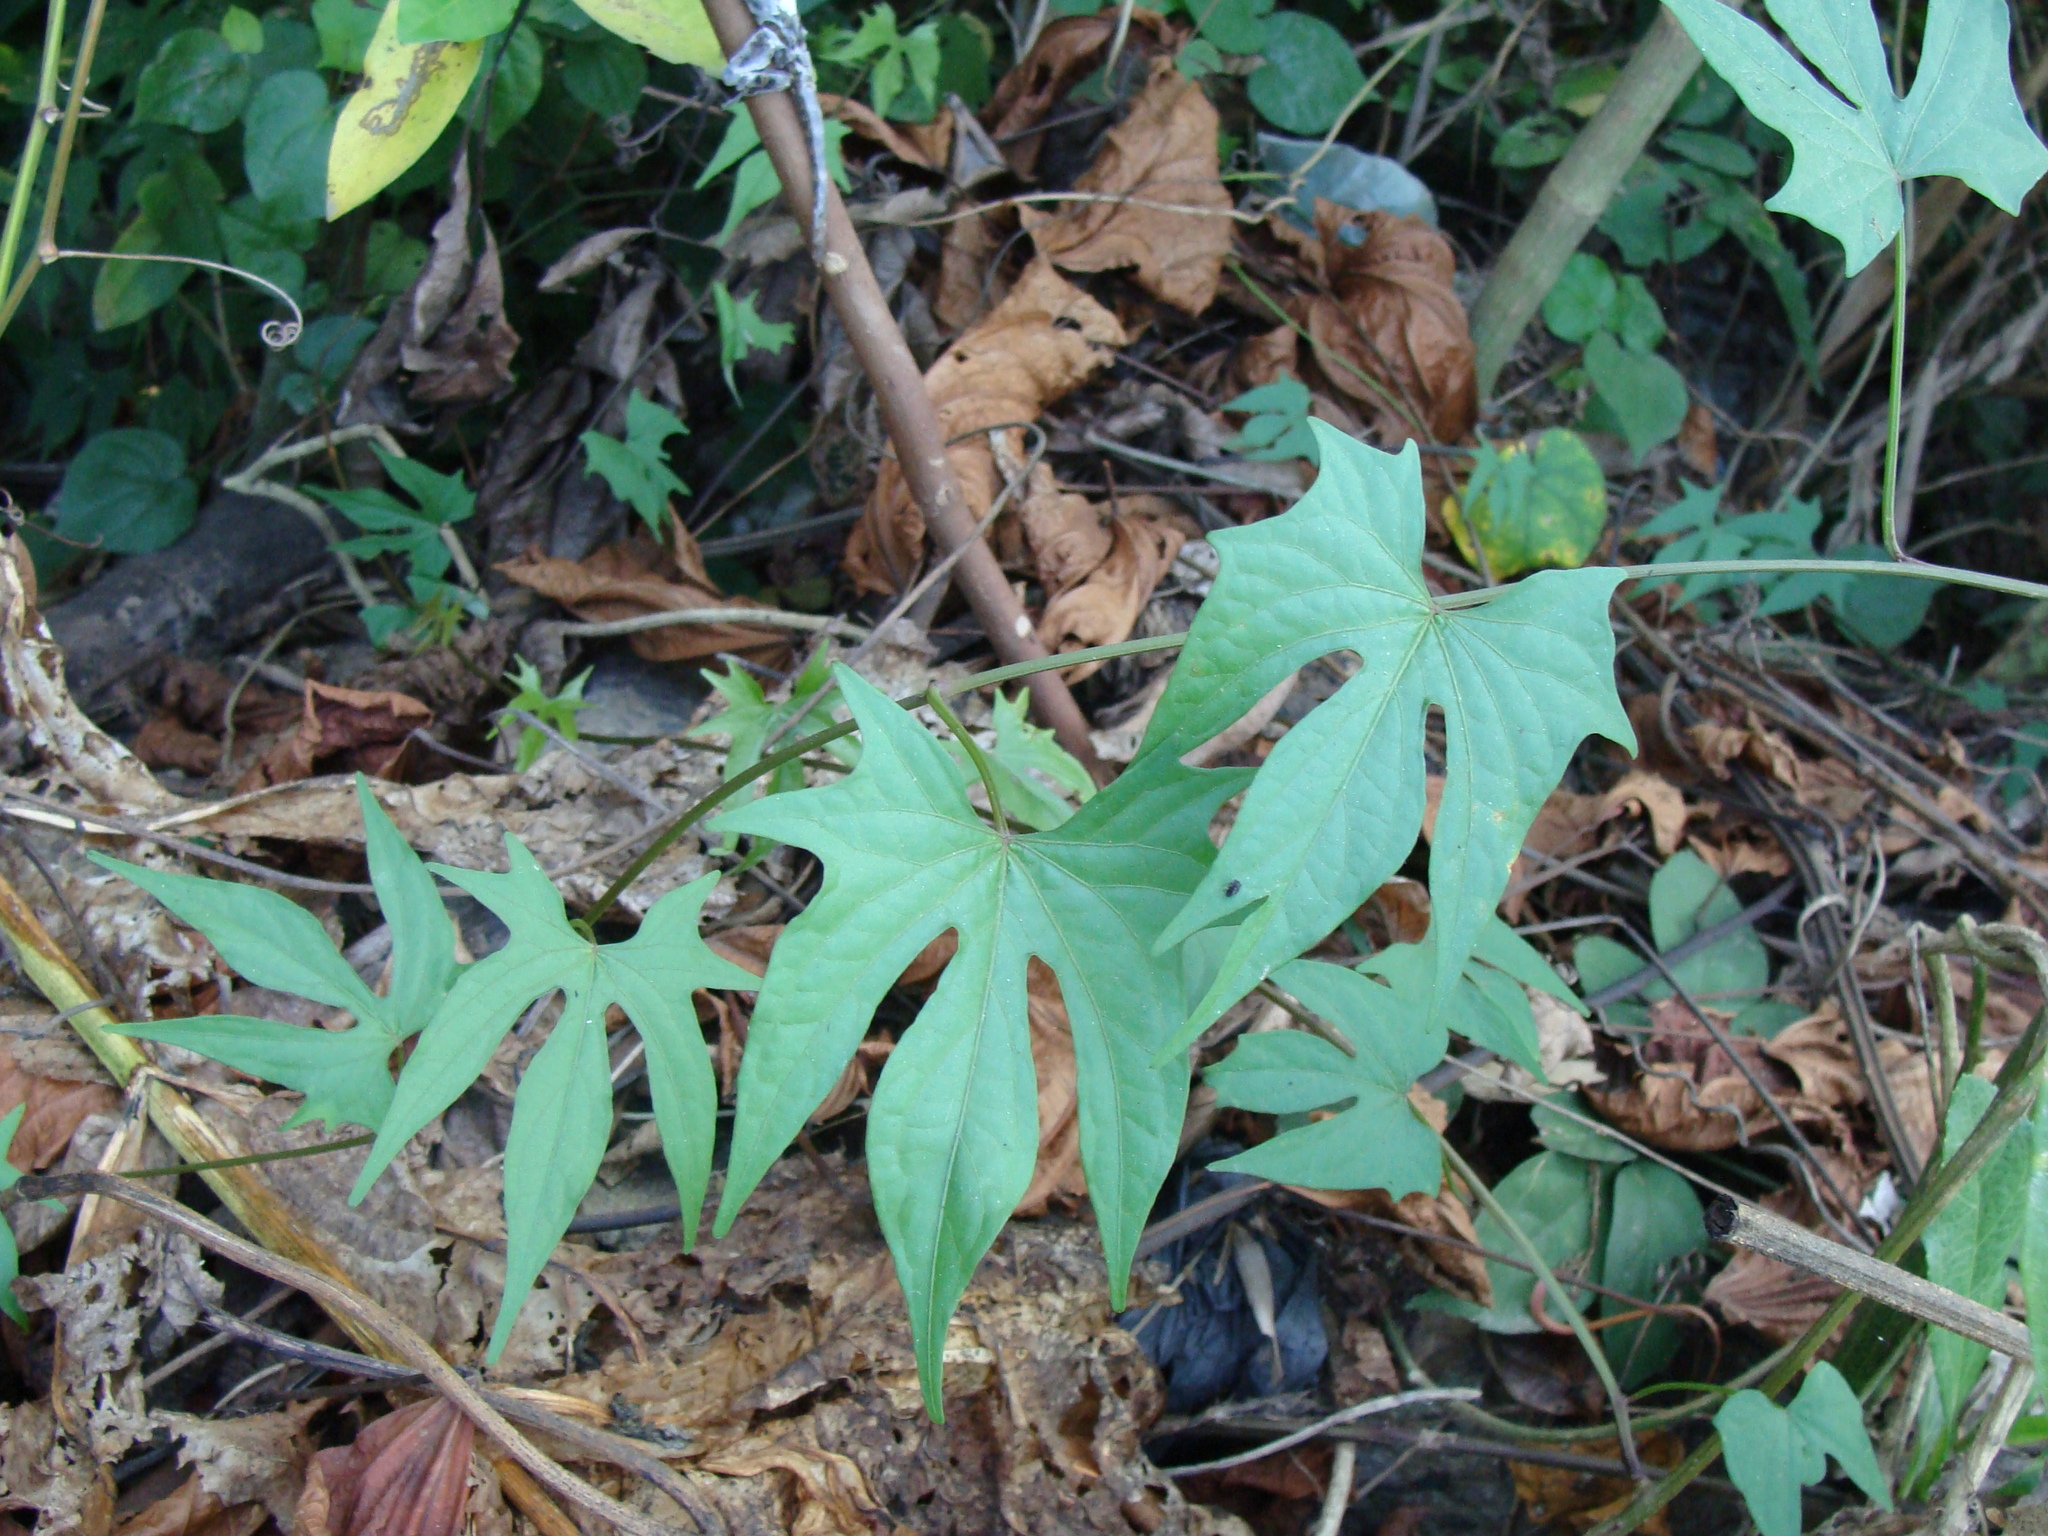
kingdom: Plantae
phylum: Tracheophyta
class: Magnoliopsida
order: Solanales
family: Convolvulaceae
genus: Ipomoea
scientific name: Ipomoea neei
